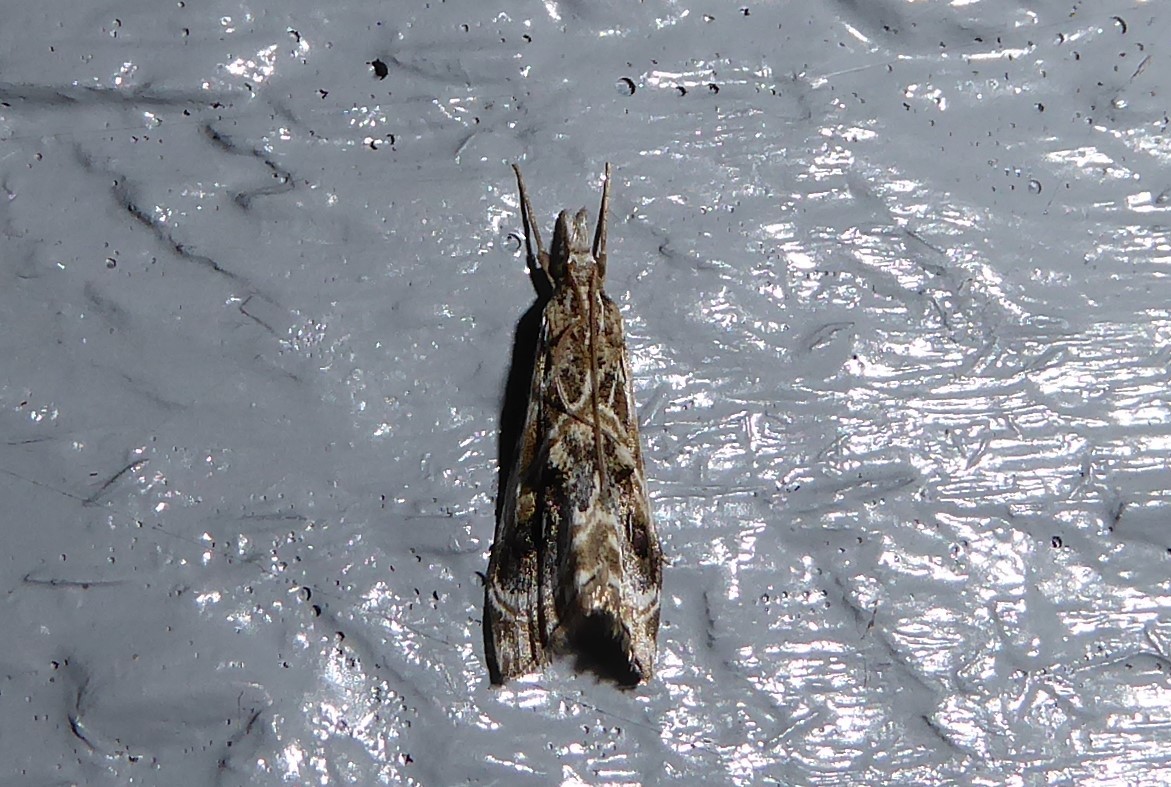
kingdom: Animalia
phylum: Arthropoda
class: Insecta
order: Lepidoptera
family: Crambidae
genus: Gadira
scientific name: Gadira acerella
